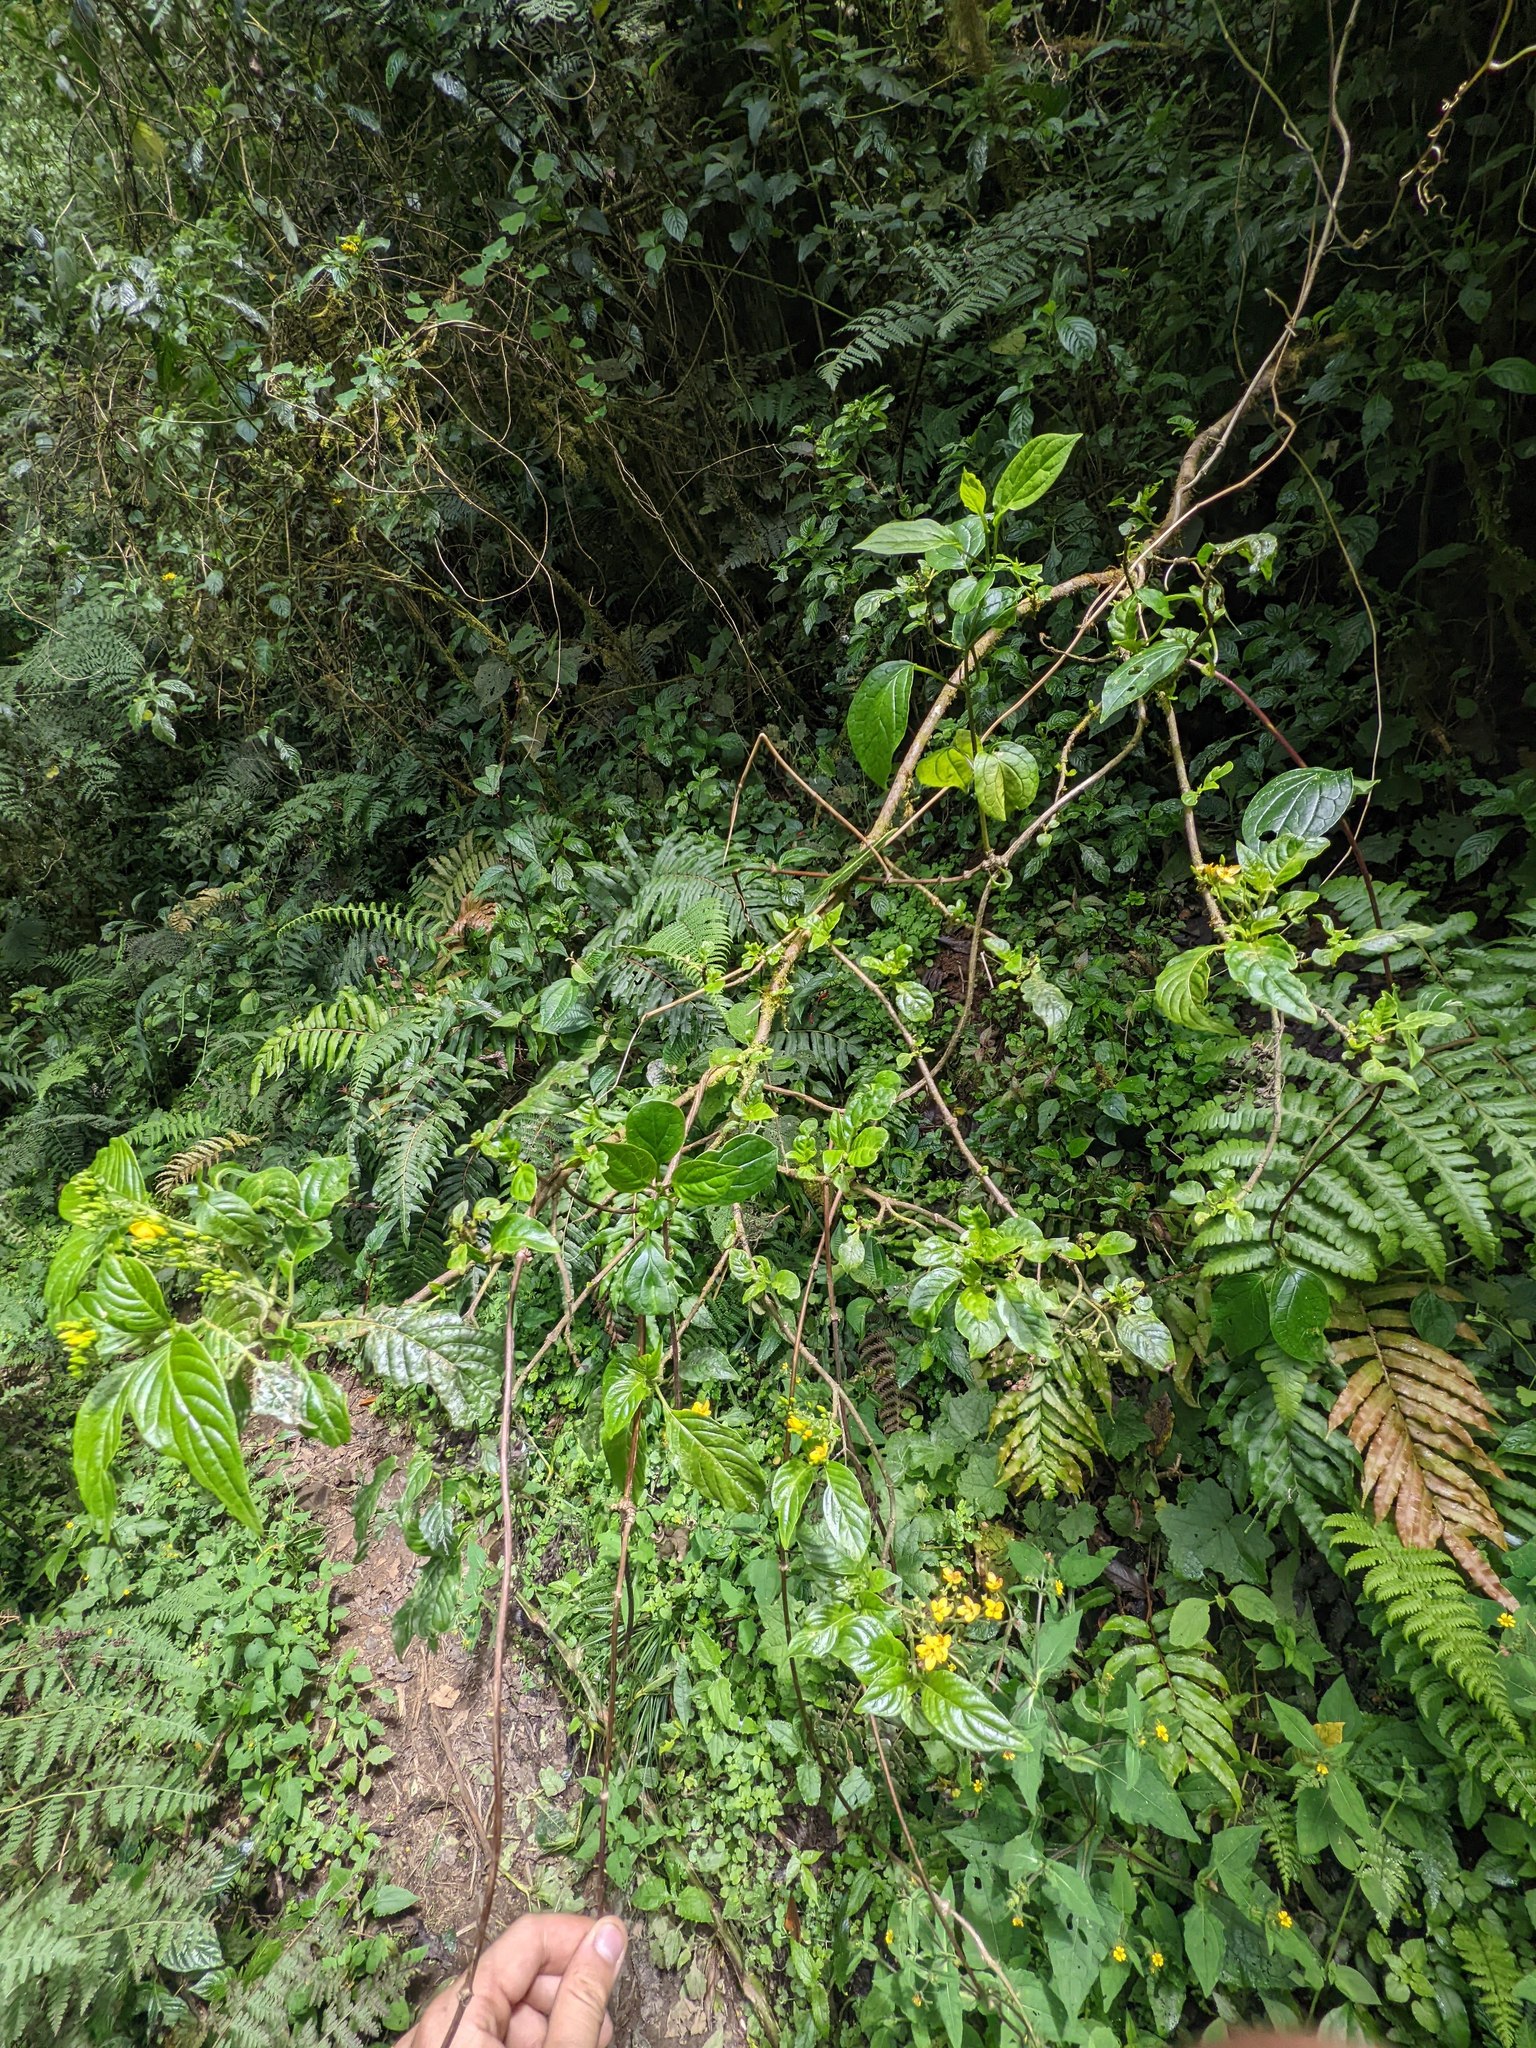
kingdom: Plantae
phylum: Tracheophyta
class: Magnoliopsida
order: Gentianales
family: Rubiaceae
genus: Deppea
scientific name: Deppea grandiflora
